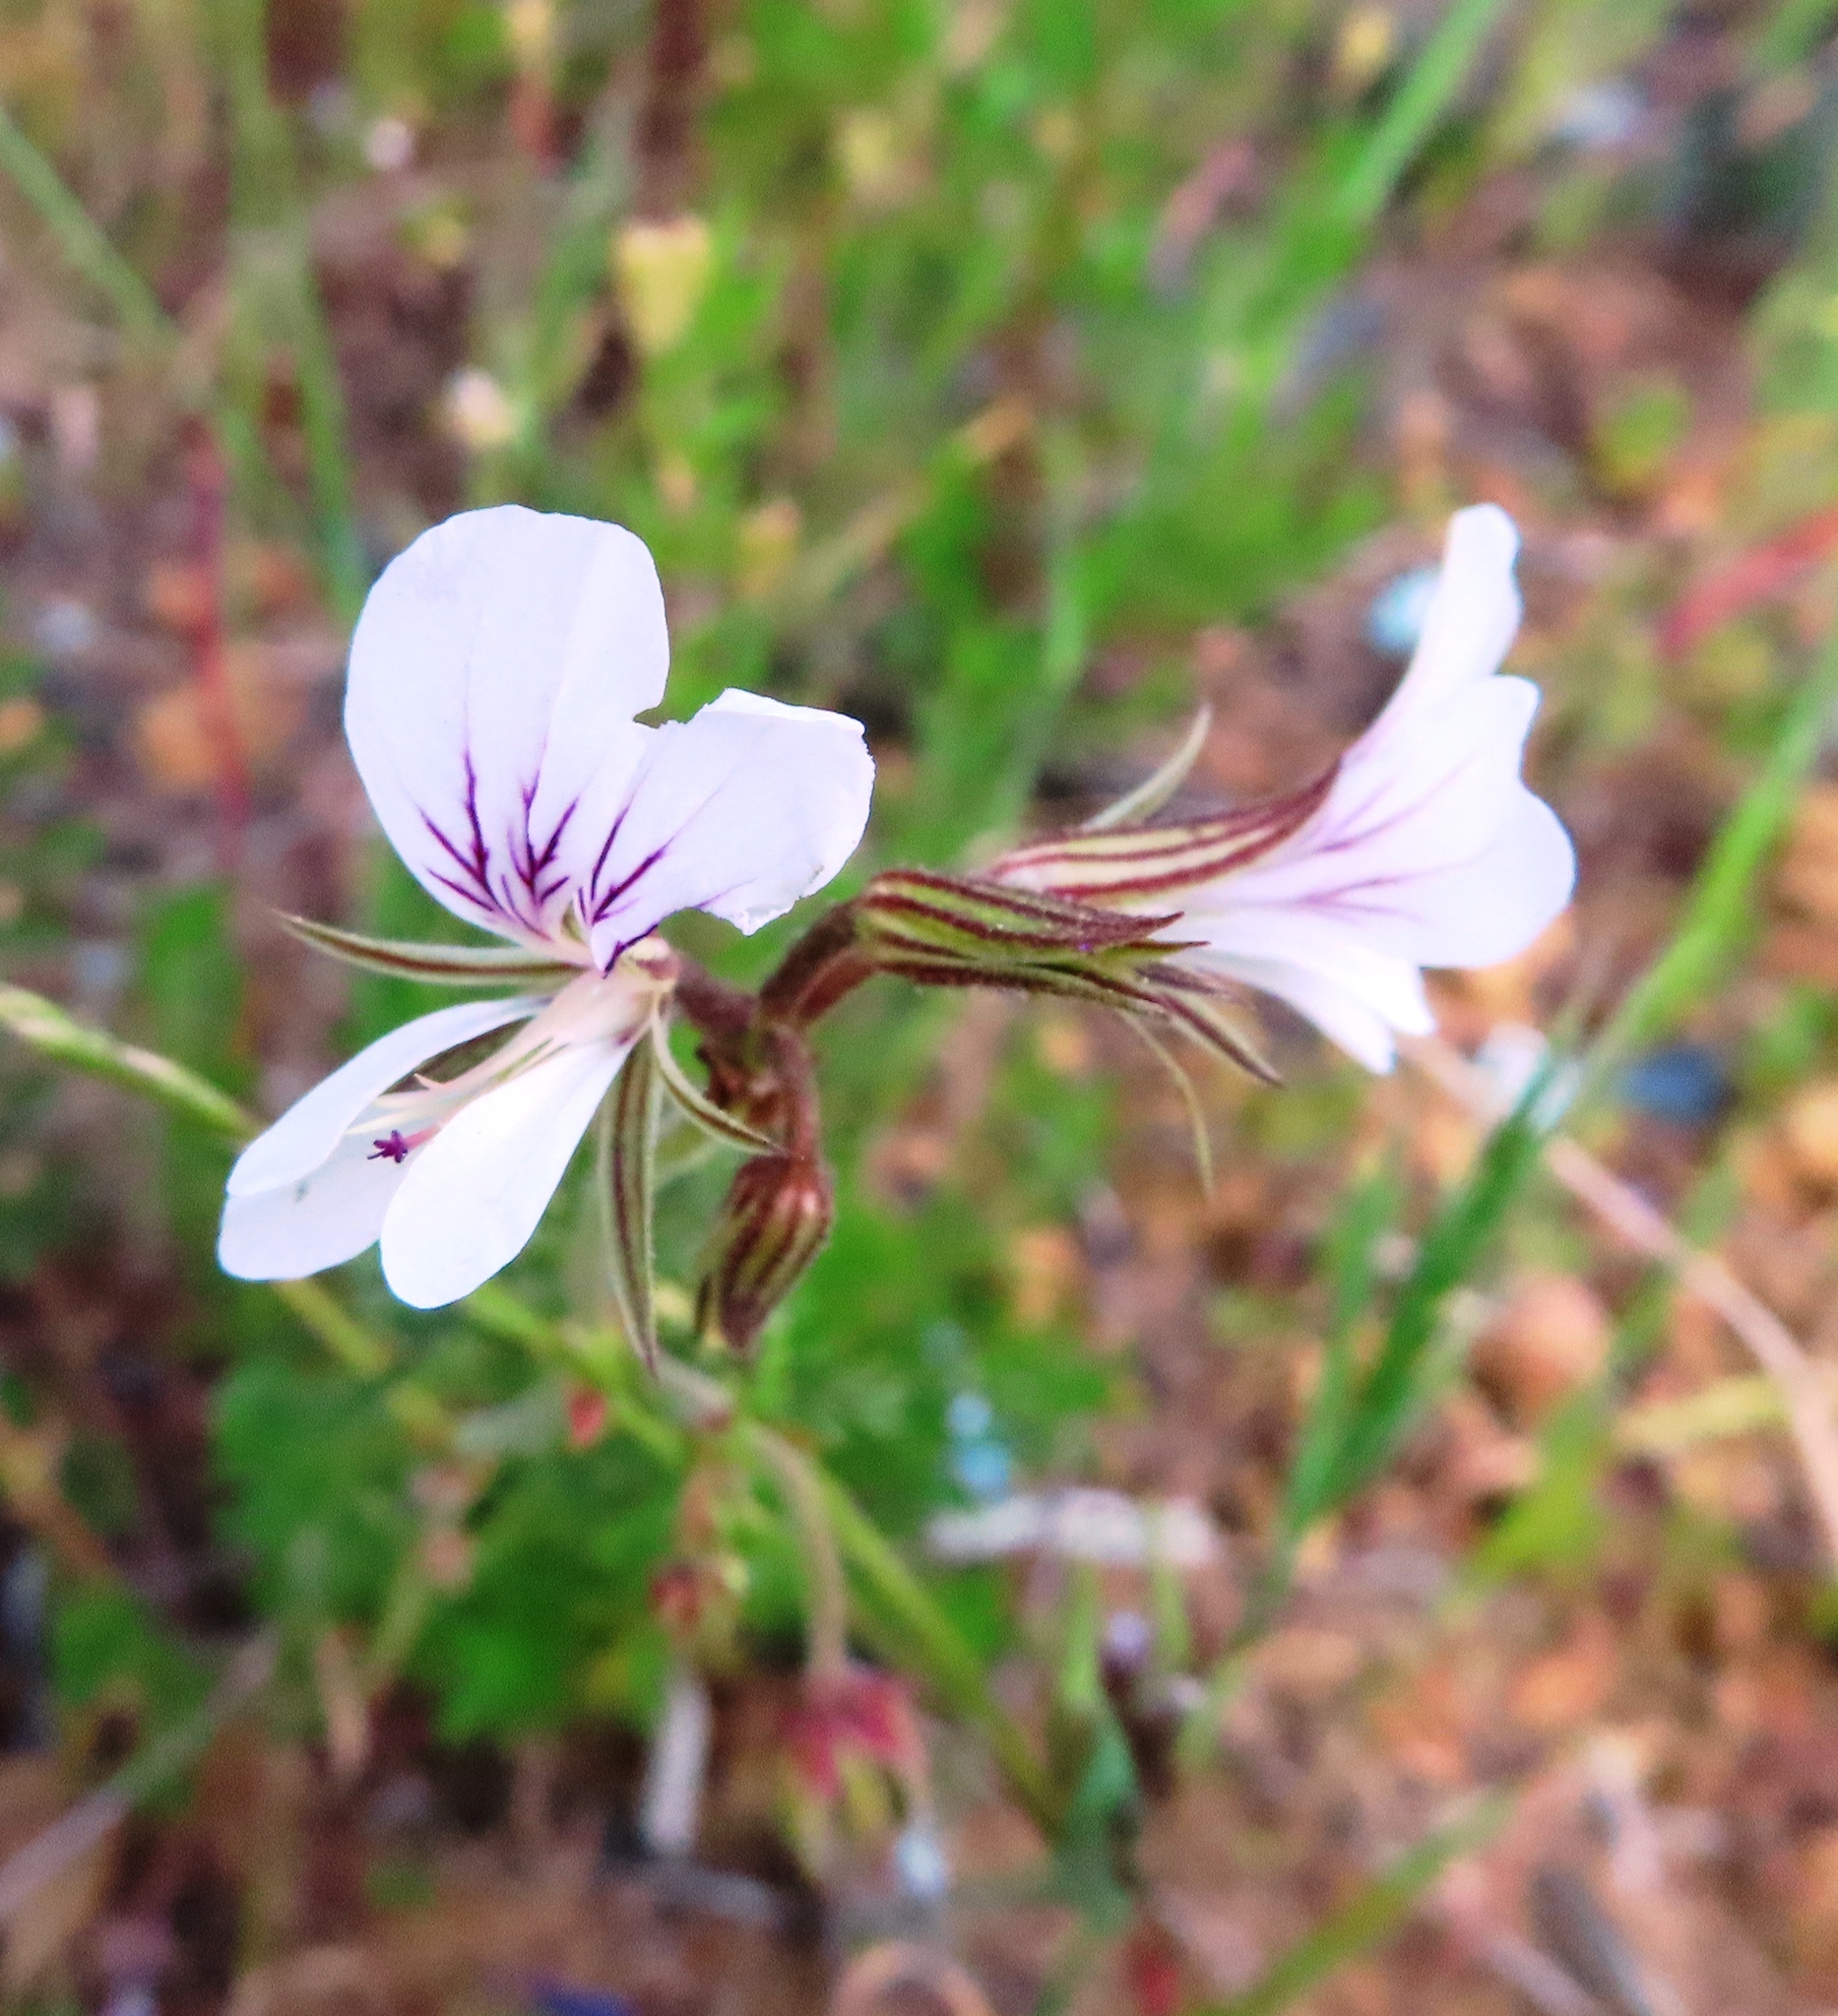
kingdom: Plantae
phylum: Tracheophyta
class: Magnoliopsida
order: Geraniales
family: Geraniaceae
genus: Pelargonium
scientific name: Pelargonium myrrhifolium
